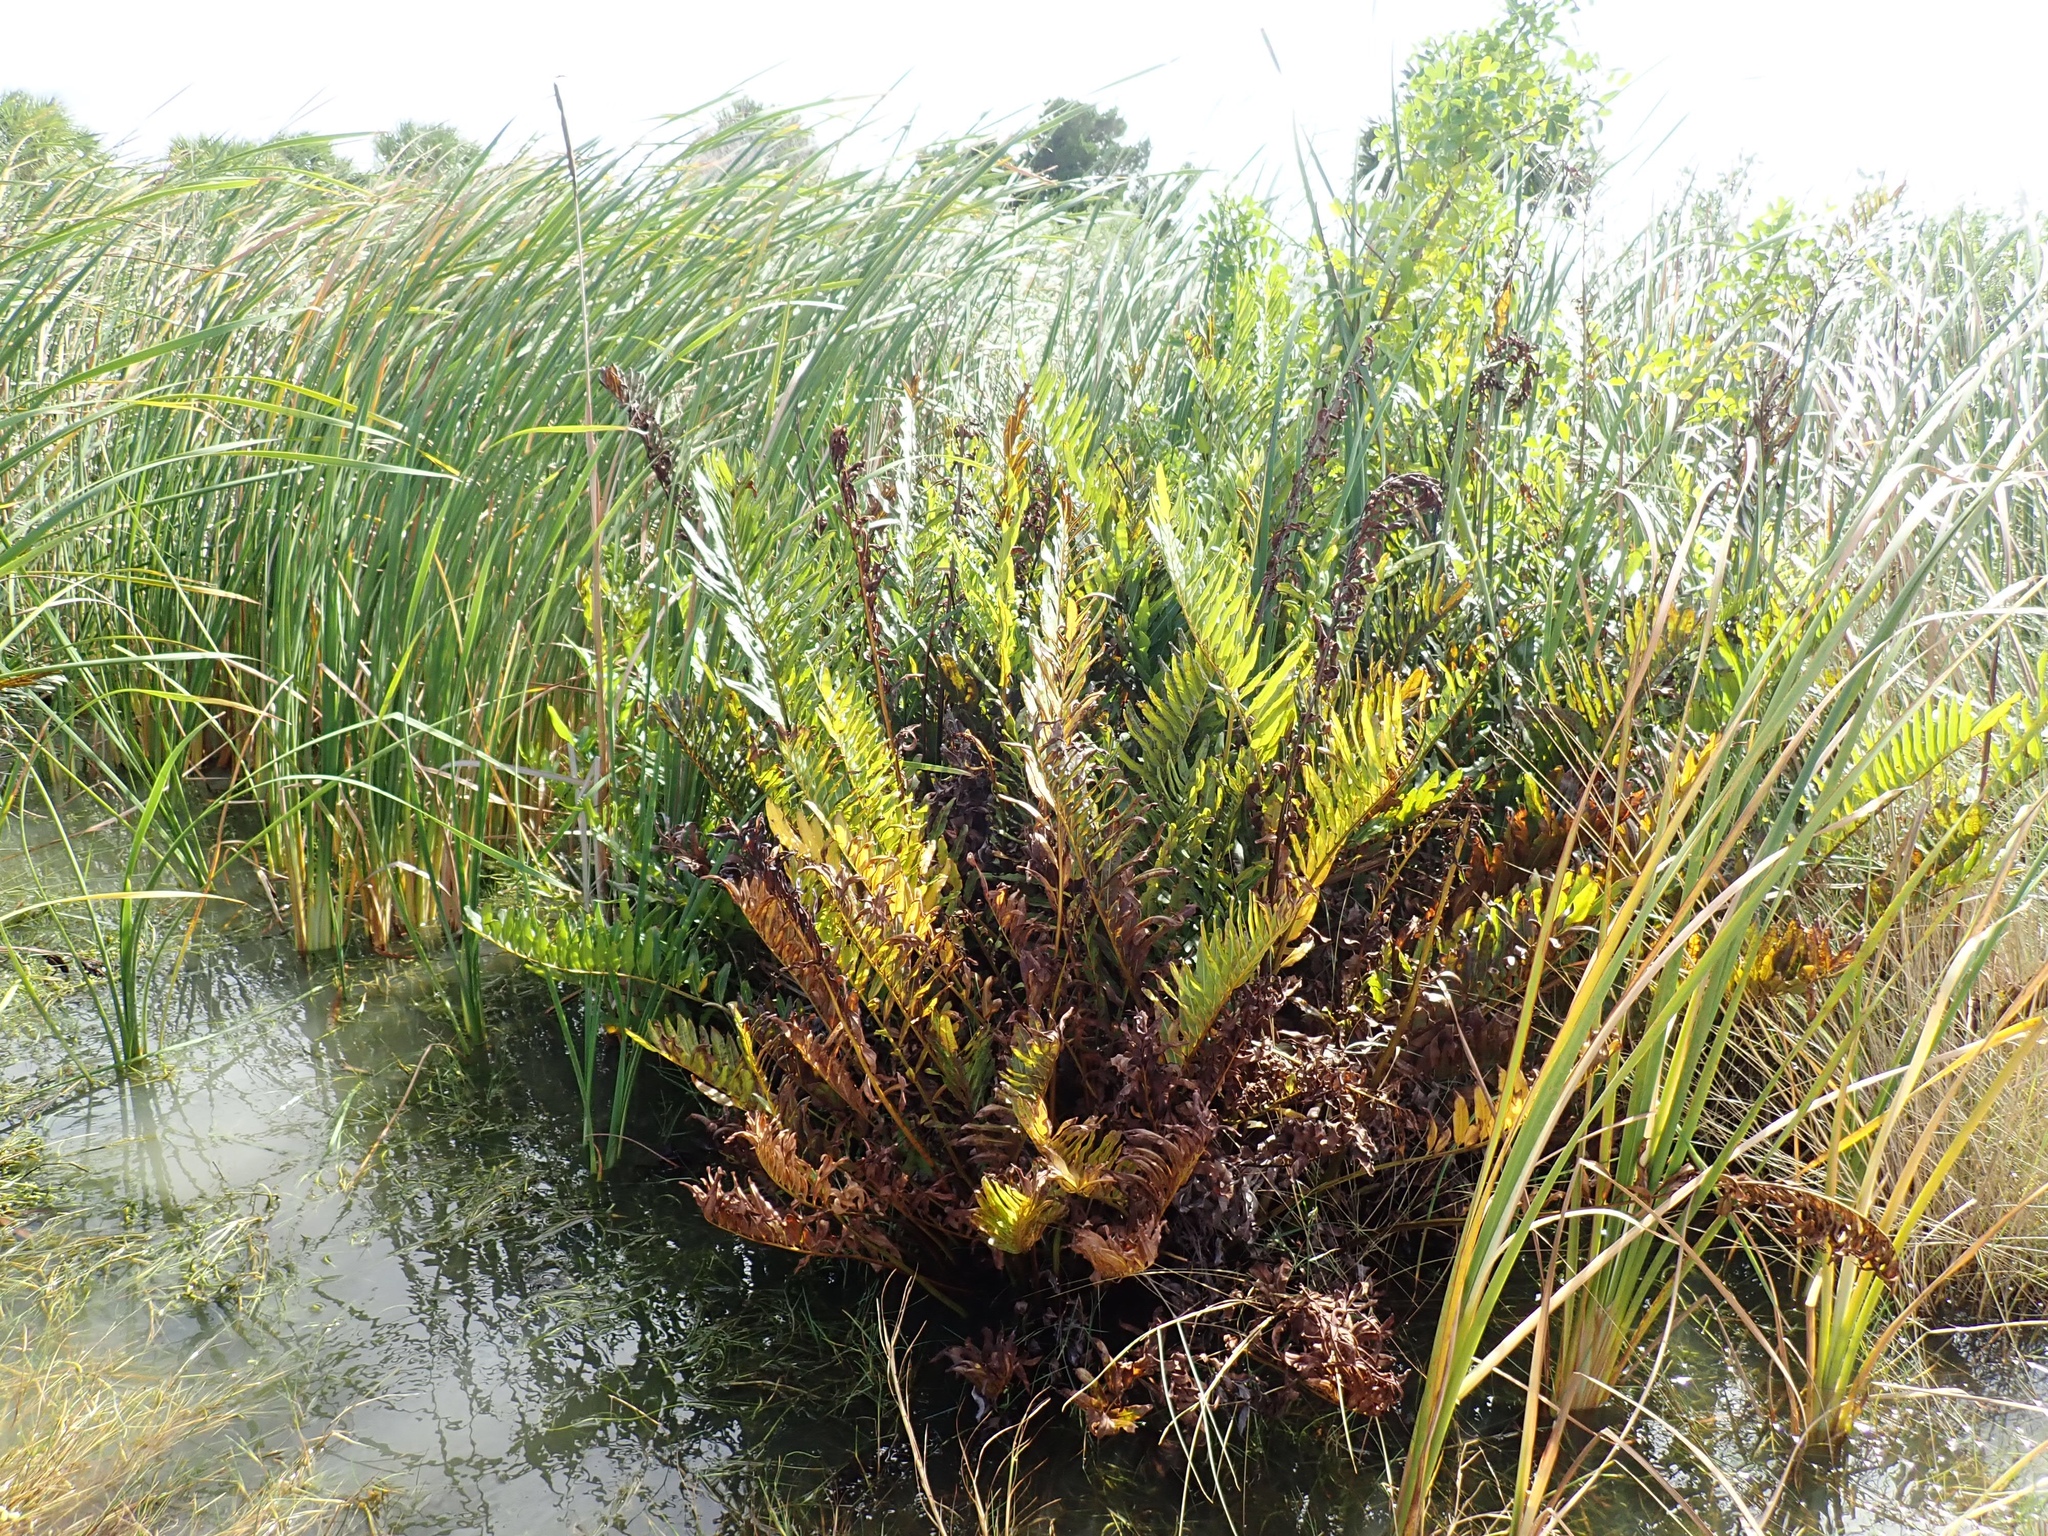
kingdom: Plantae
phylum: Tracheophyta
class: Polypodiopsida
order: Polypodiales
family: Pteridaceae
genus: Acrostichum
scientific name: Acrostichum danaeifolium
